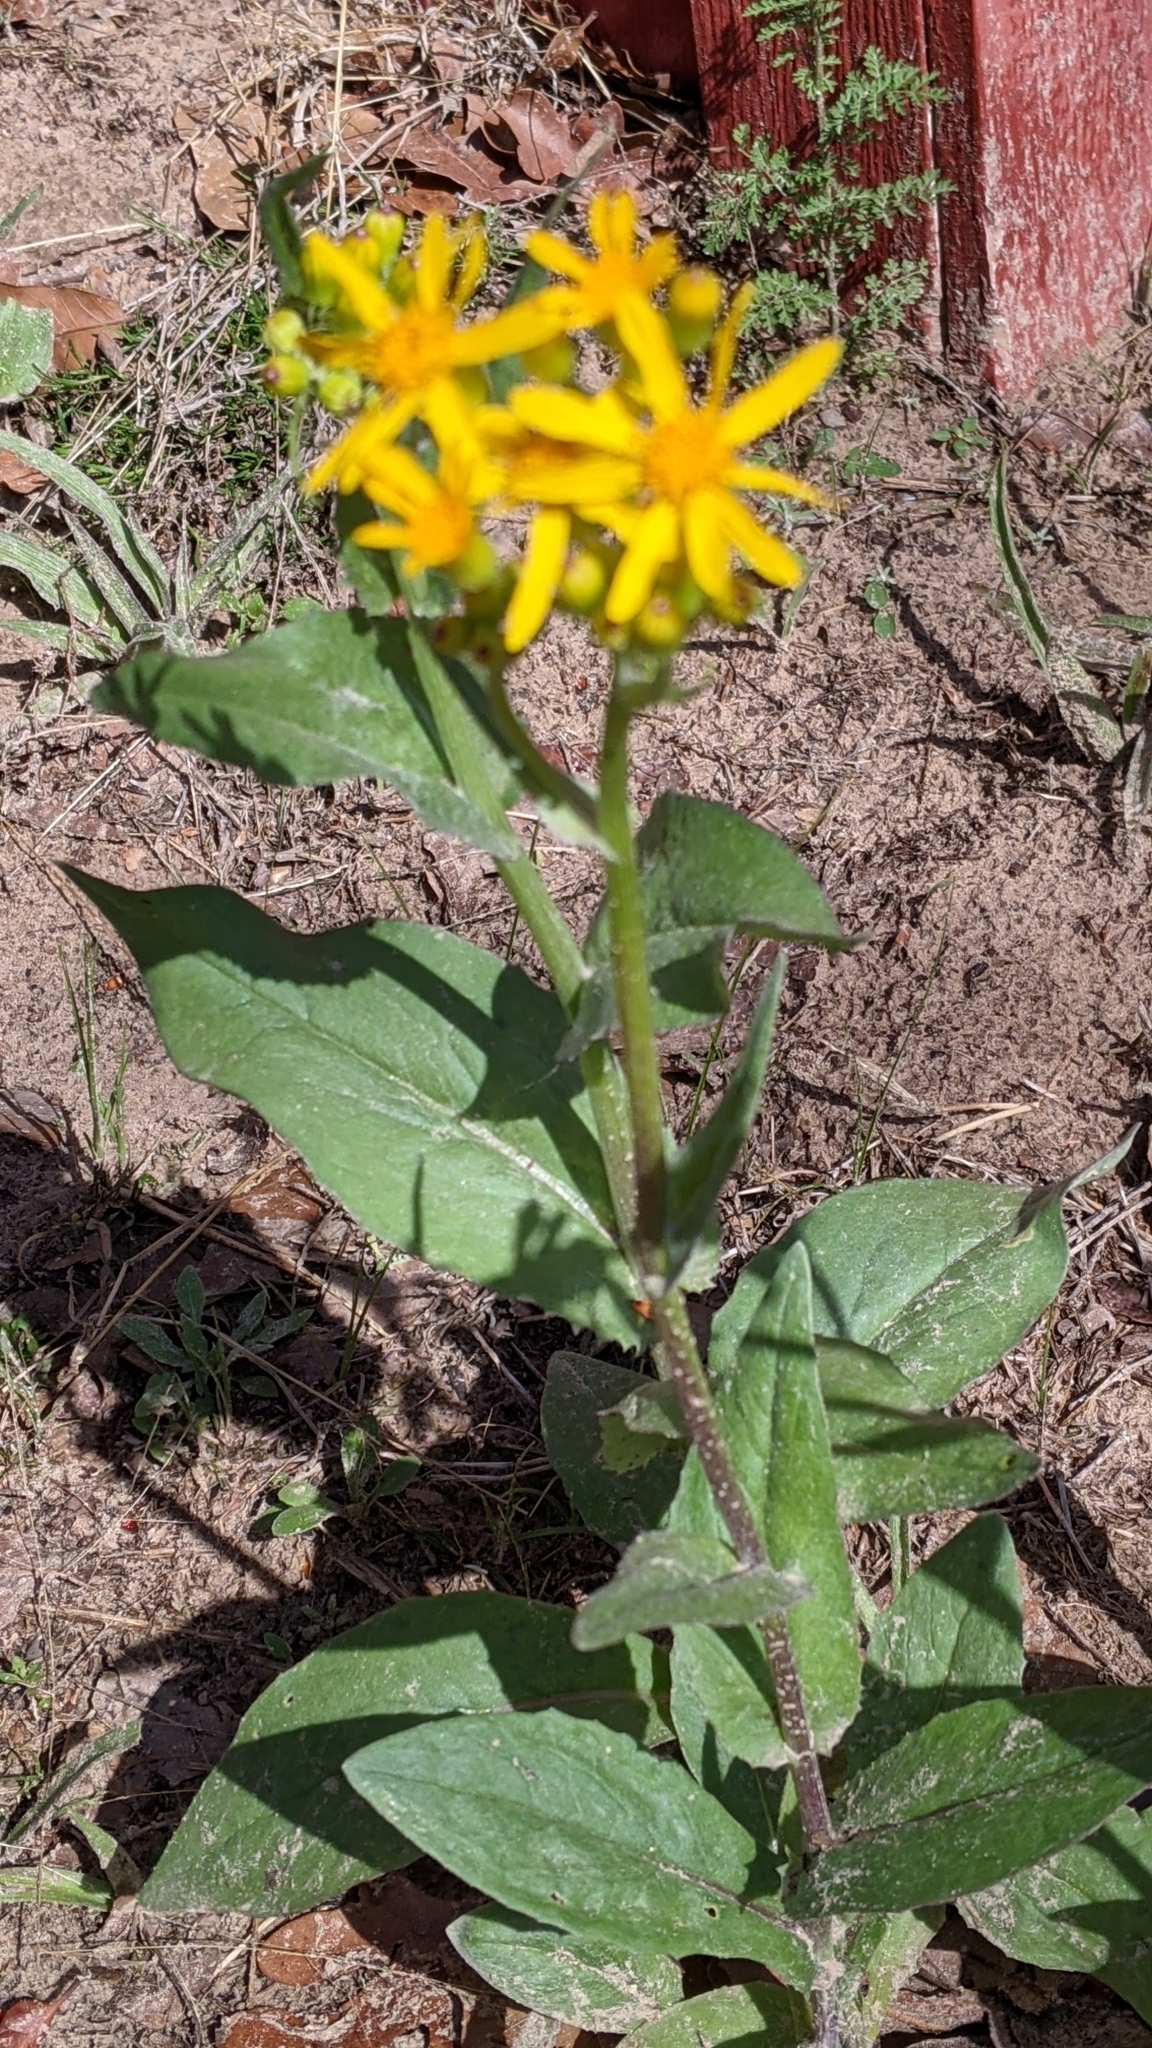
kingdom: Plantae
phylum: Tracheophyta
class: Magnoliopsida
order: Asterales
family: Asteraceae
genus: Senecio
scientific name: Senecio ampullaceus
